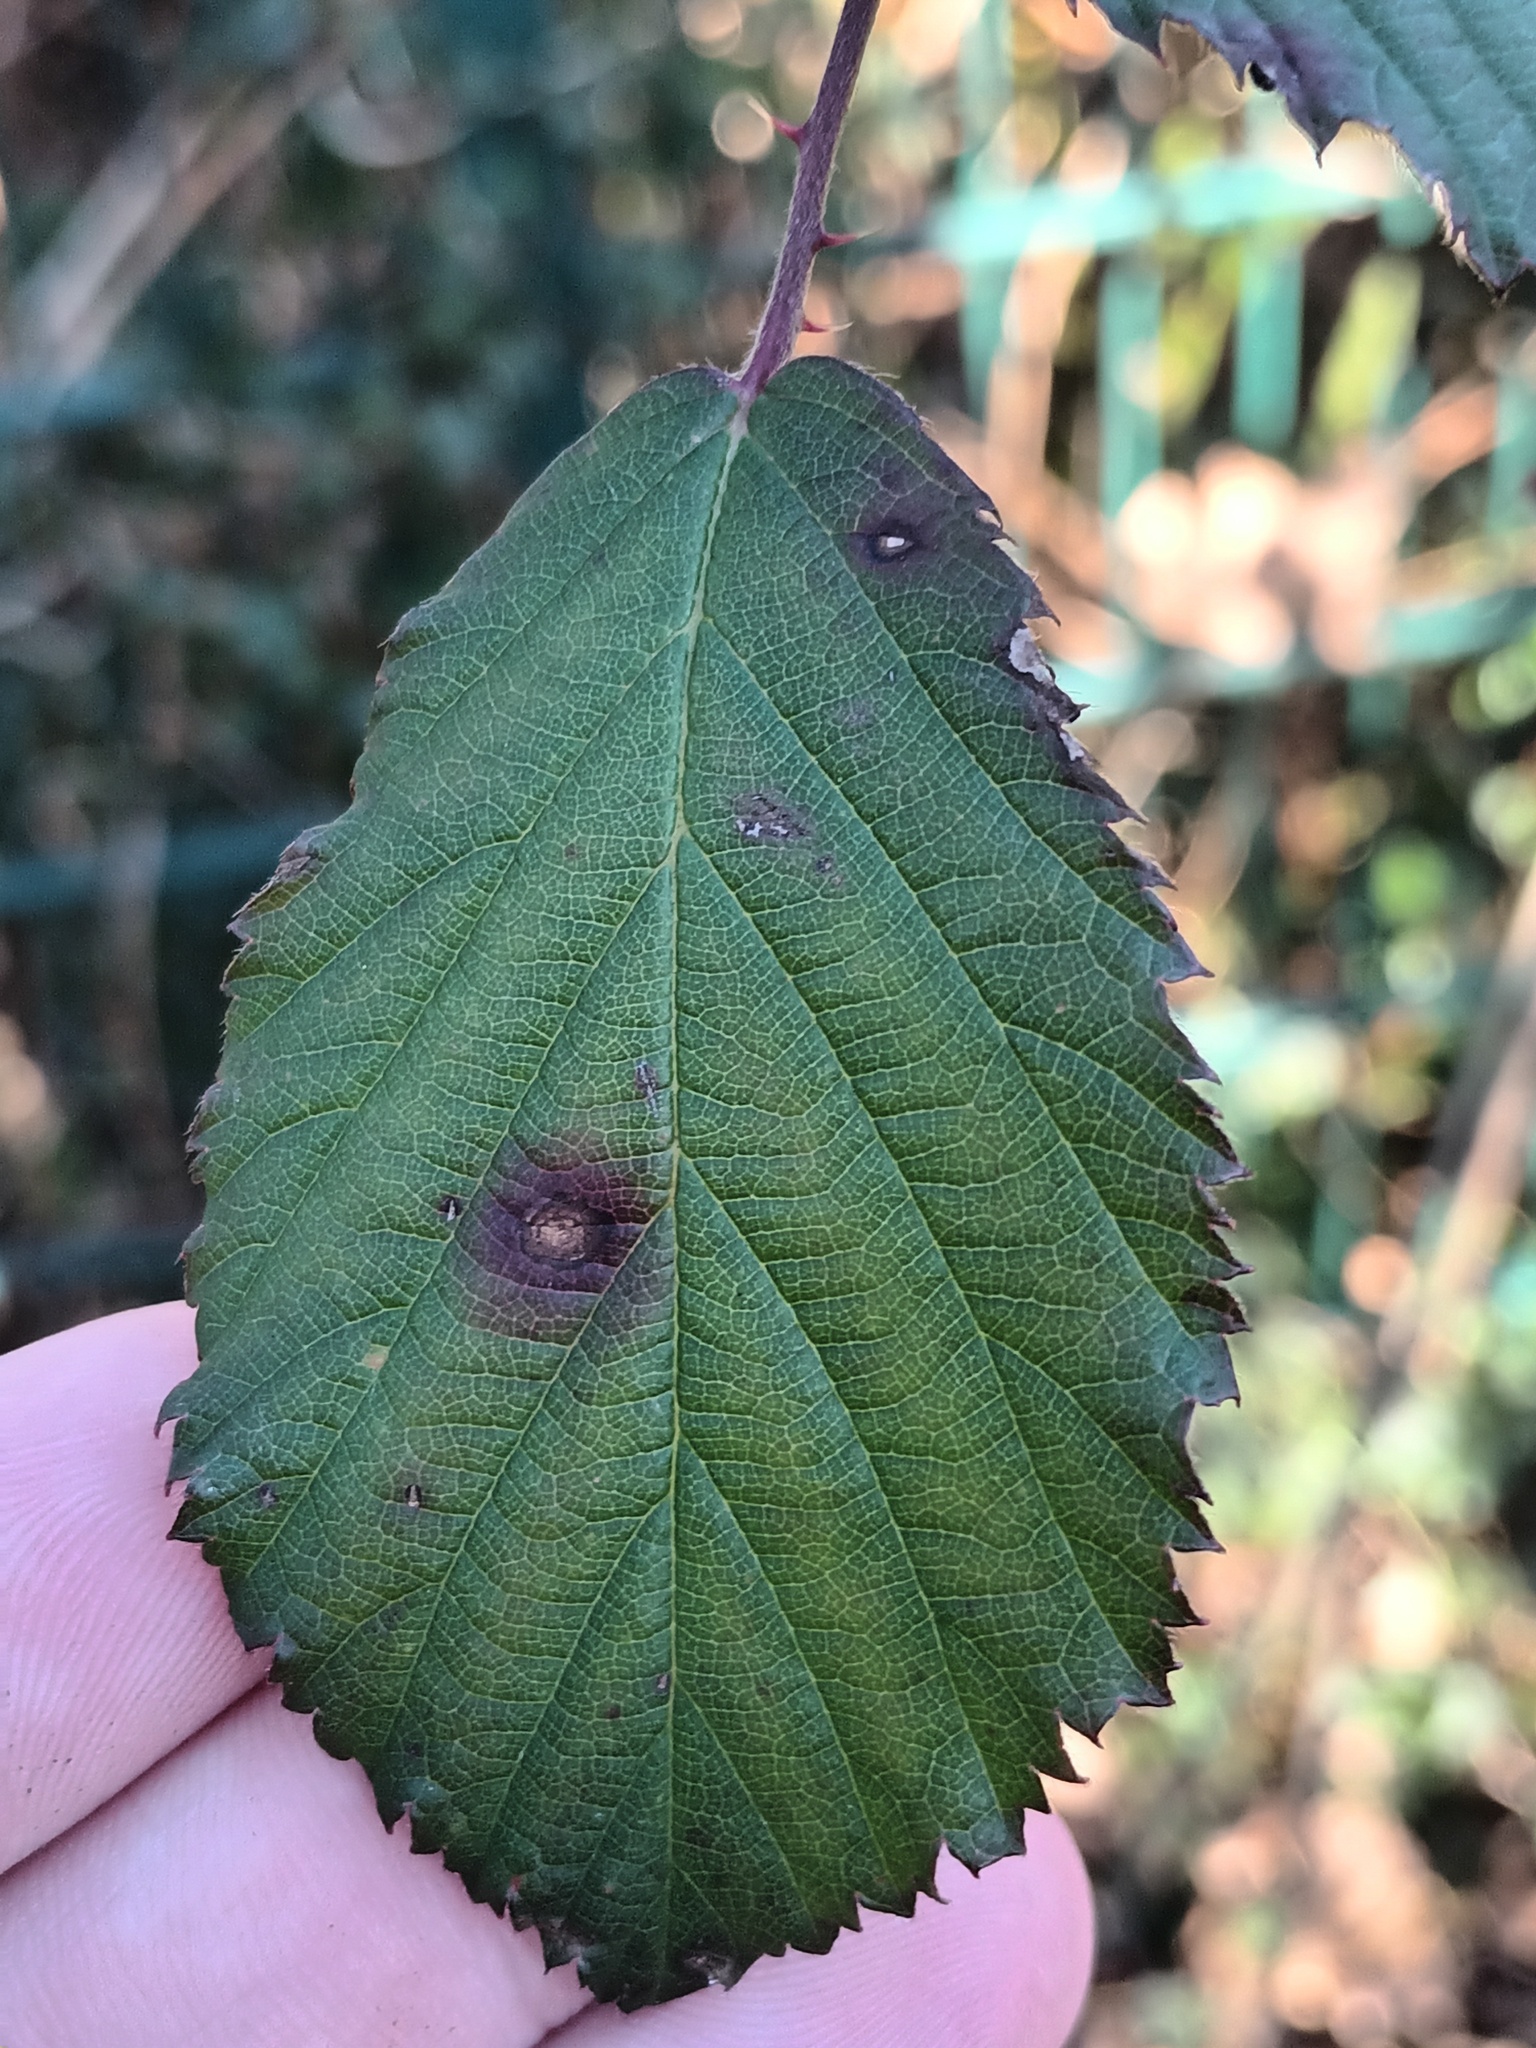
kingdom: Fungi
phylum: Basidiomycota
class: Pucciniomycetes
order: Pucciniales
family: Phragmidiaceae
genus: Phragmidium
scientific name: Phragmidium violaceum
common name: Violet bramble rust
